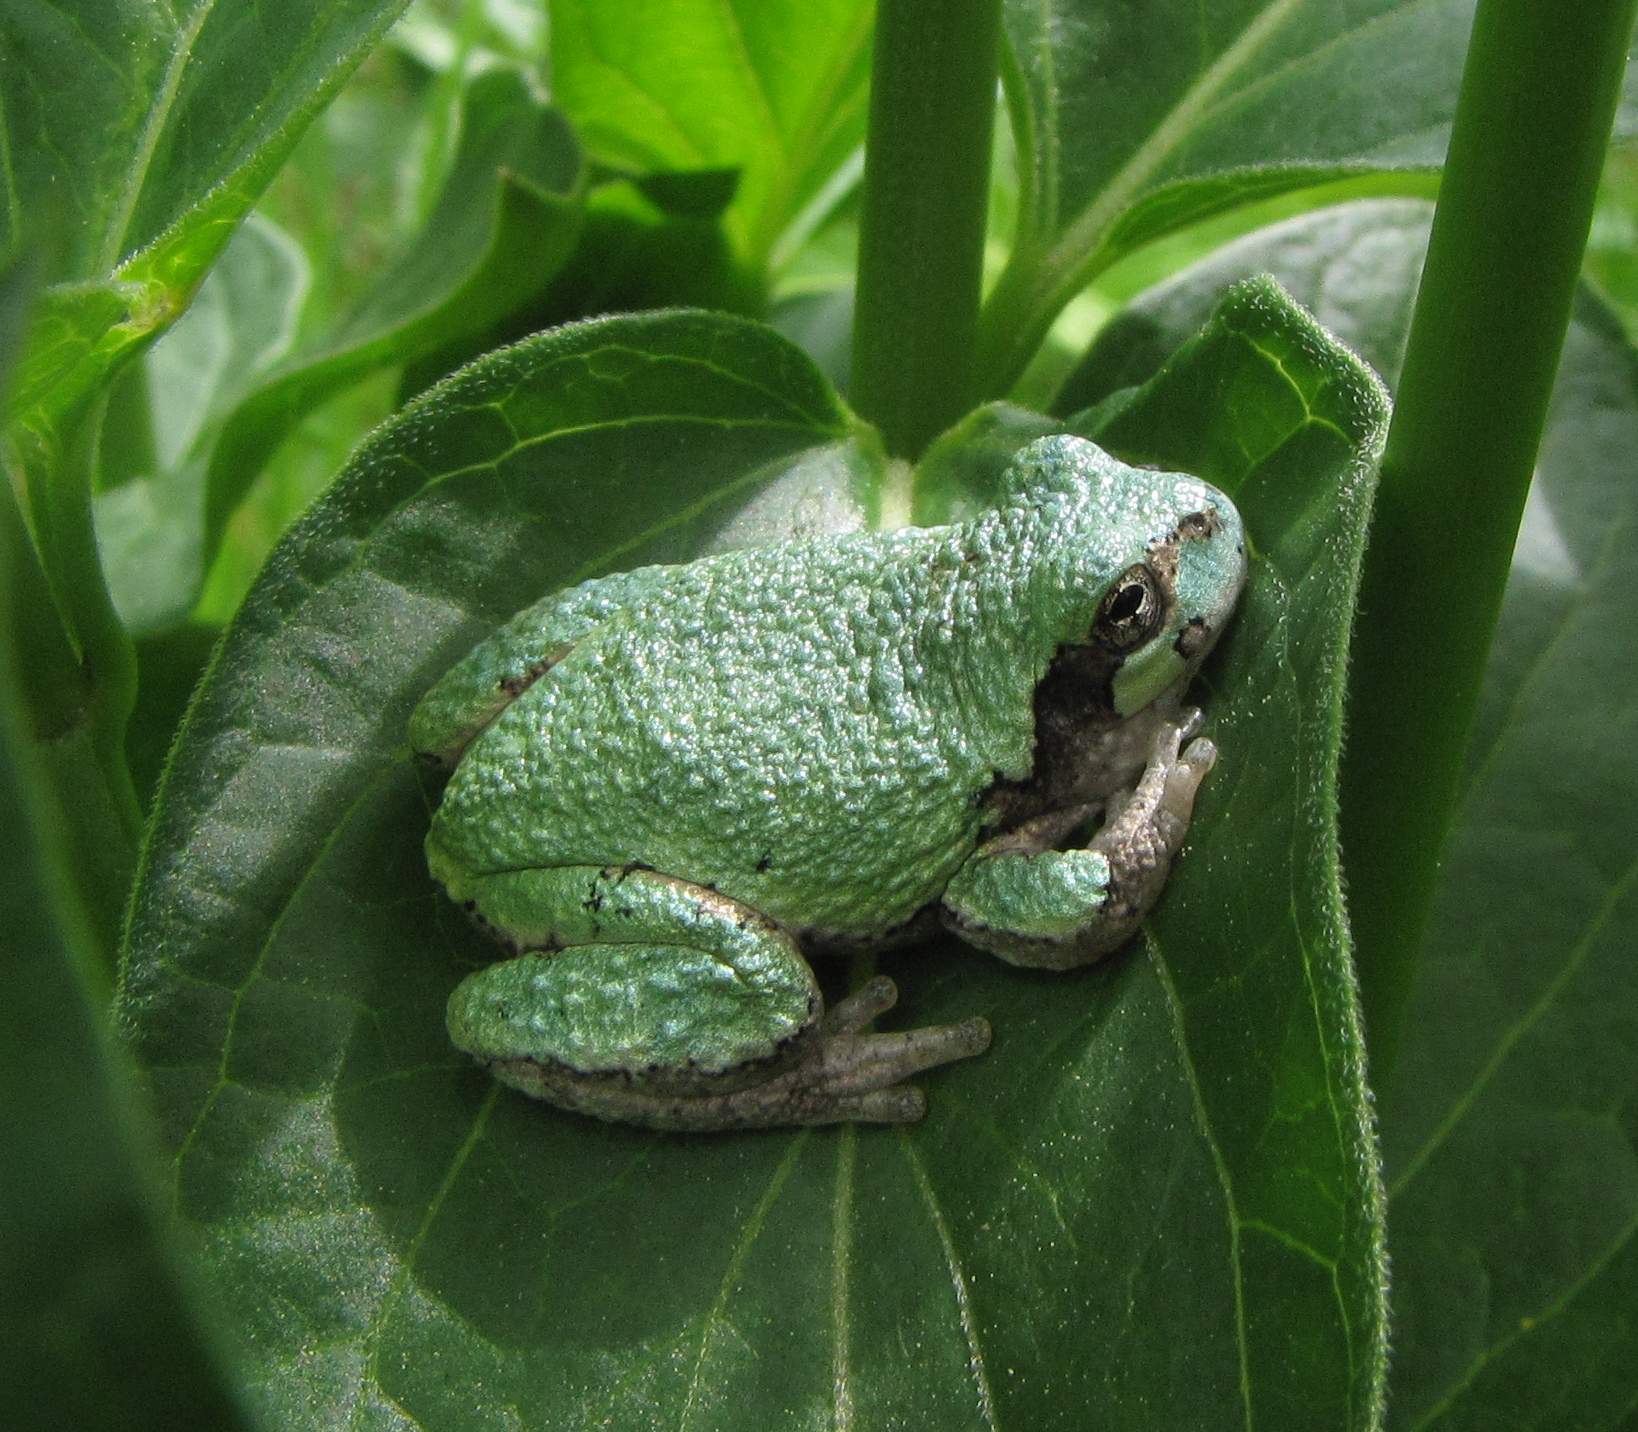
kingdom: Animalia
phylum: Chordata
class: Amphibia
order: Anura
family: Hylidae
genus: Dryophytes
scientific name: Dryophytes versicolor
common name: Gray treefrog
